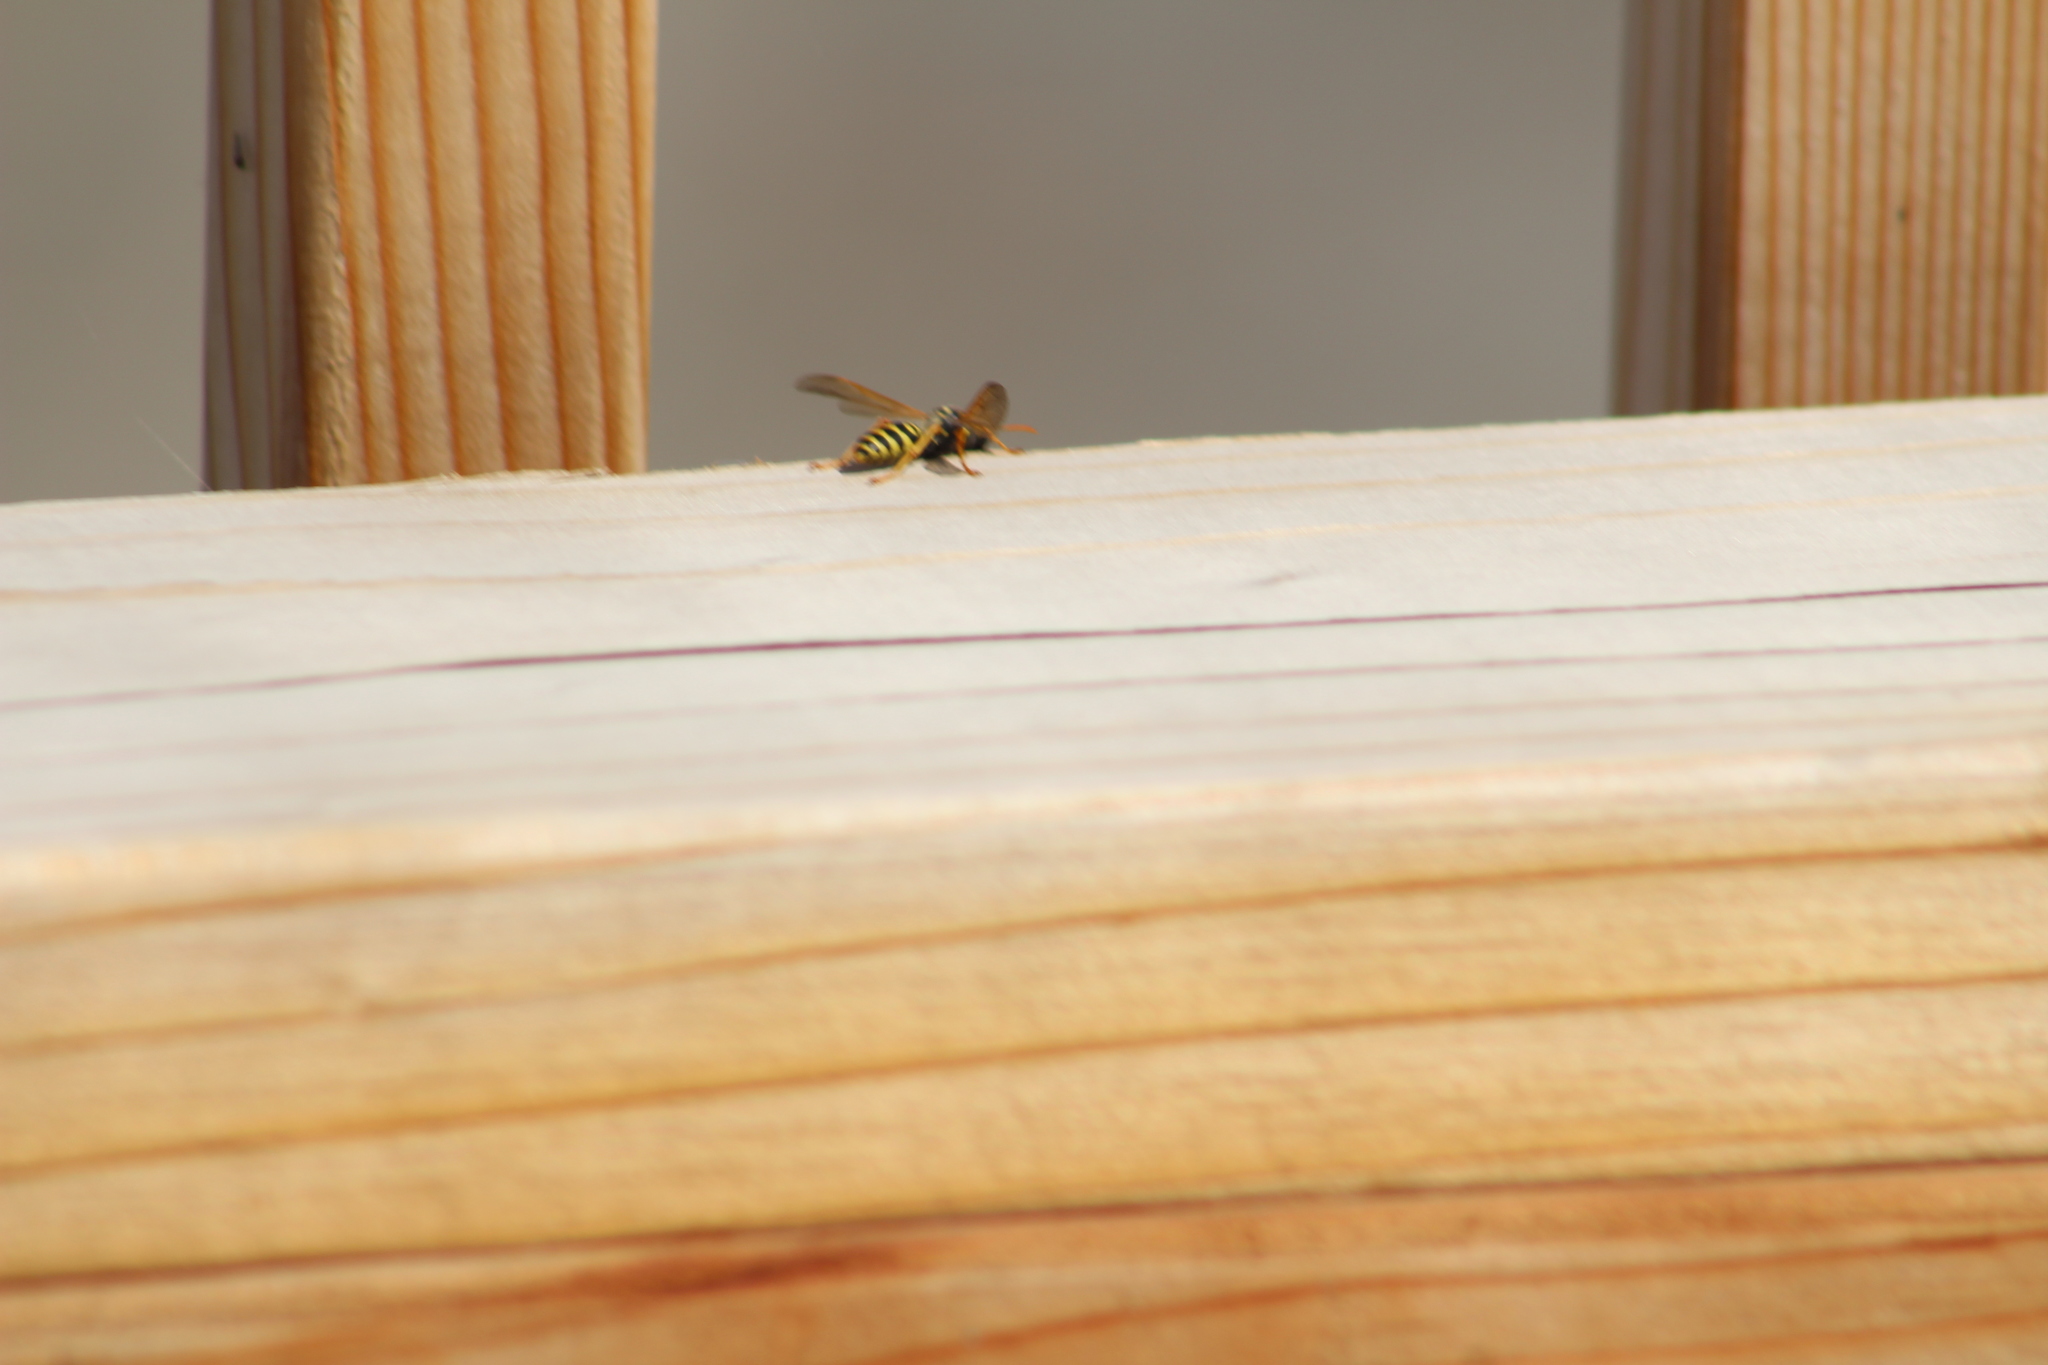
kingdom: Animalia
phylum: Arthropoda
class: Insecta
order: Hymenoptera
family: Eumenidae
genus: Polistes
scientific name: Polistes dominula
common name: Paper wasp
